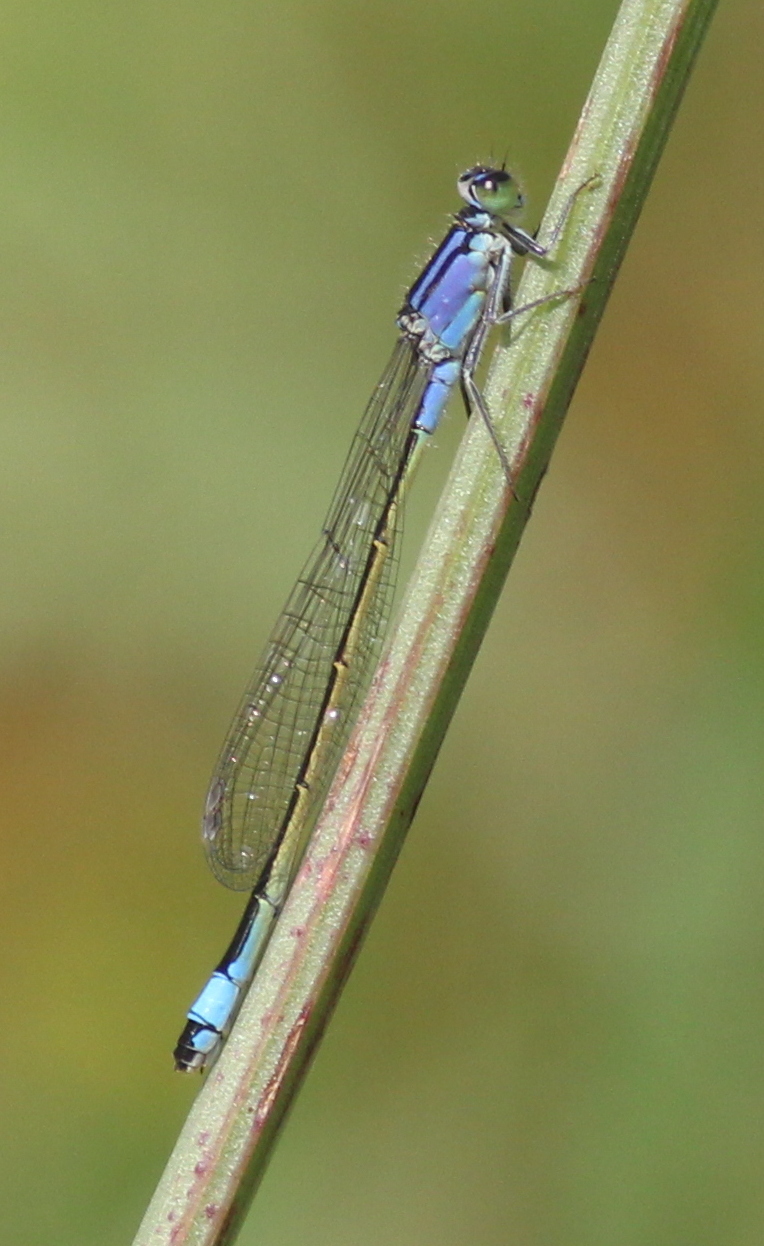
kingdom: Animalia
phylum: Arthropoda
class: Insecta
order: Odonata
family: Coenagrionidae
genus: Ischnura
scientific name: Ischnura elegans
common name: Blue-tailed damselfly
